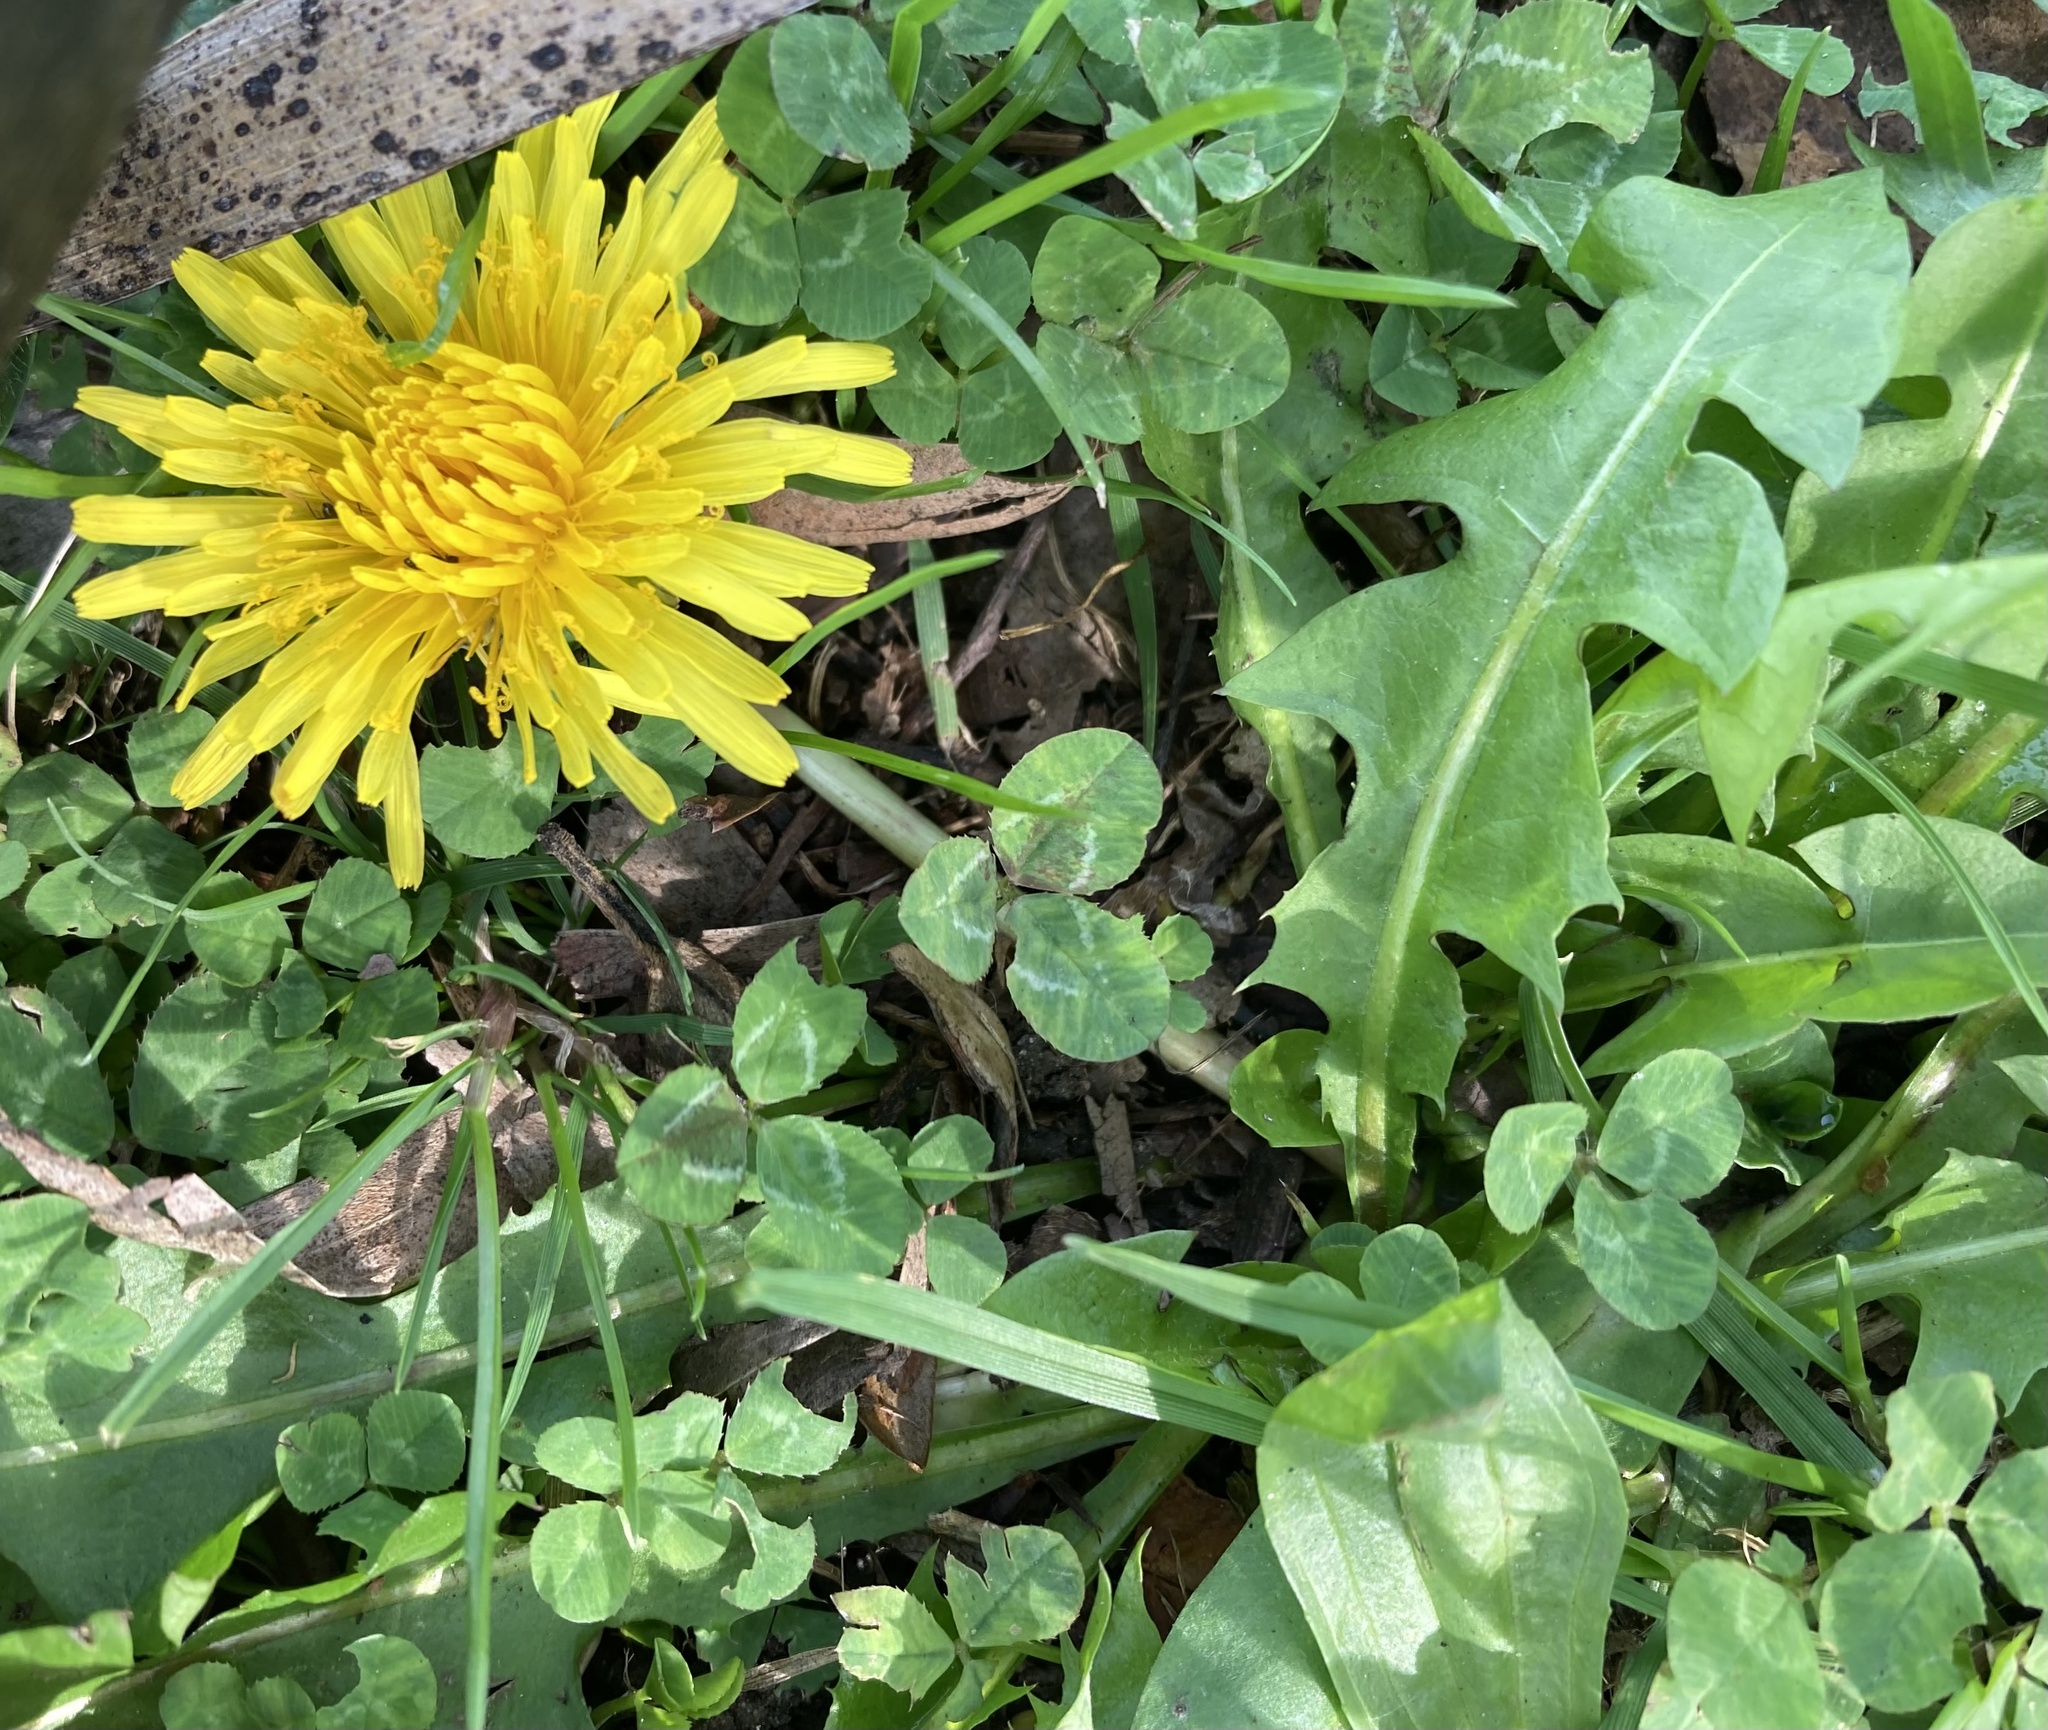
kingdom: Plantae
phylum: Tracheophyta
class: Magnoliopsida
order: Asterales
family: Asteraceae
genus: Taraxacum
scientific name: Taraxacum officinale
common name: Common dandelion
